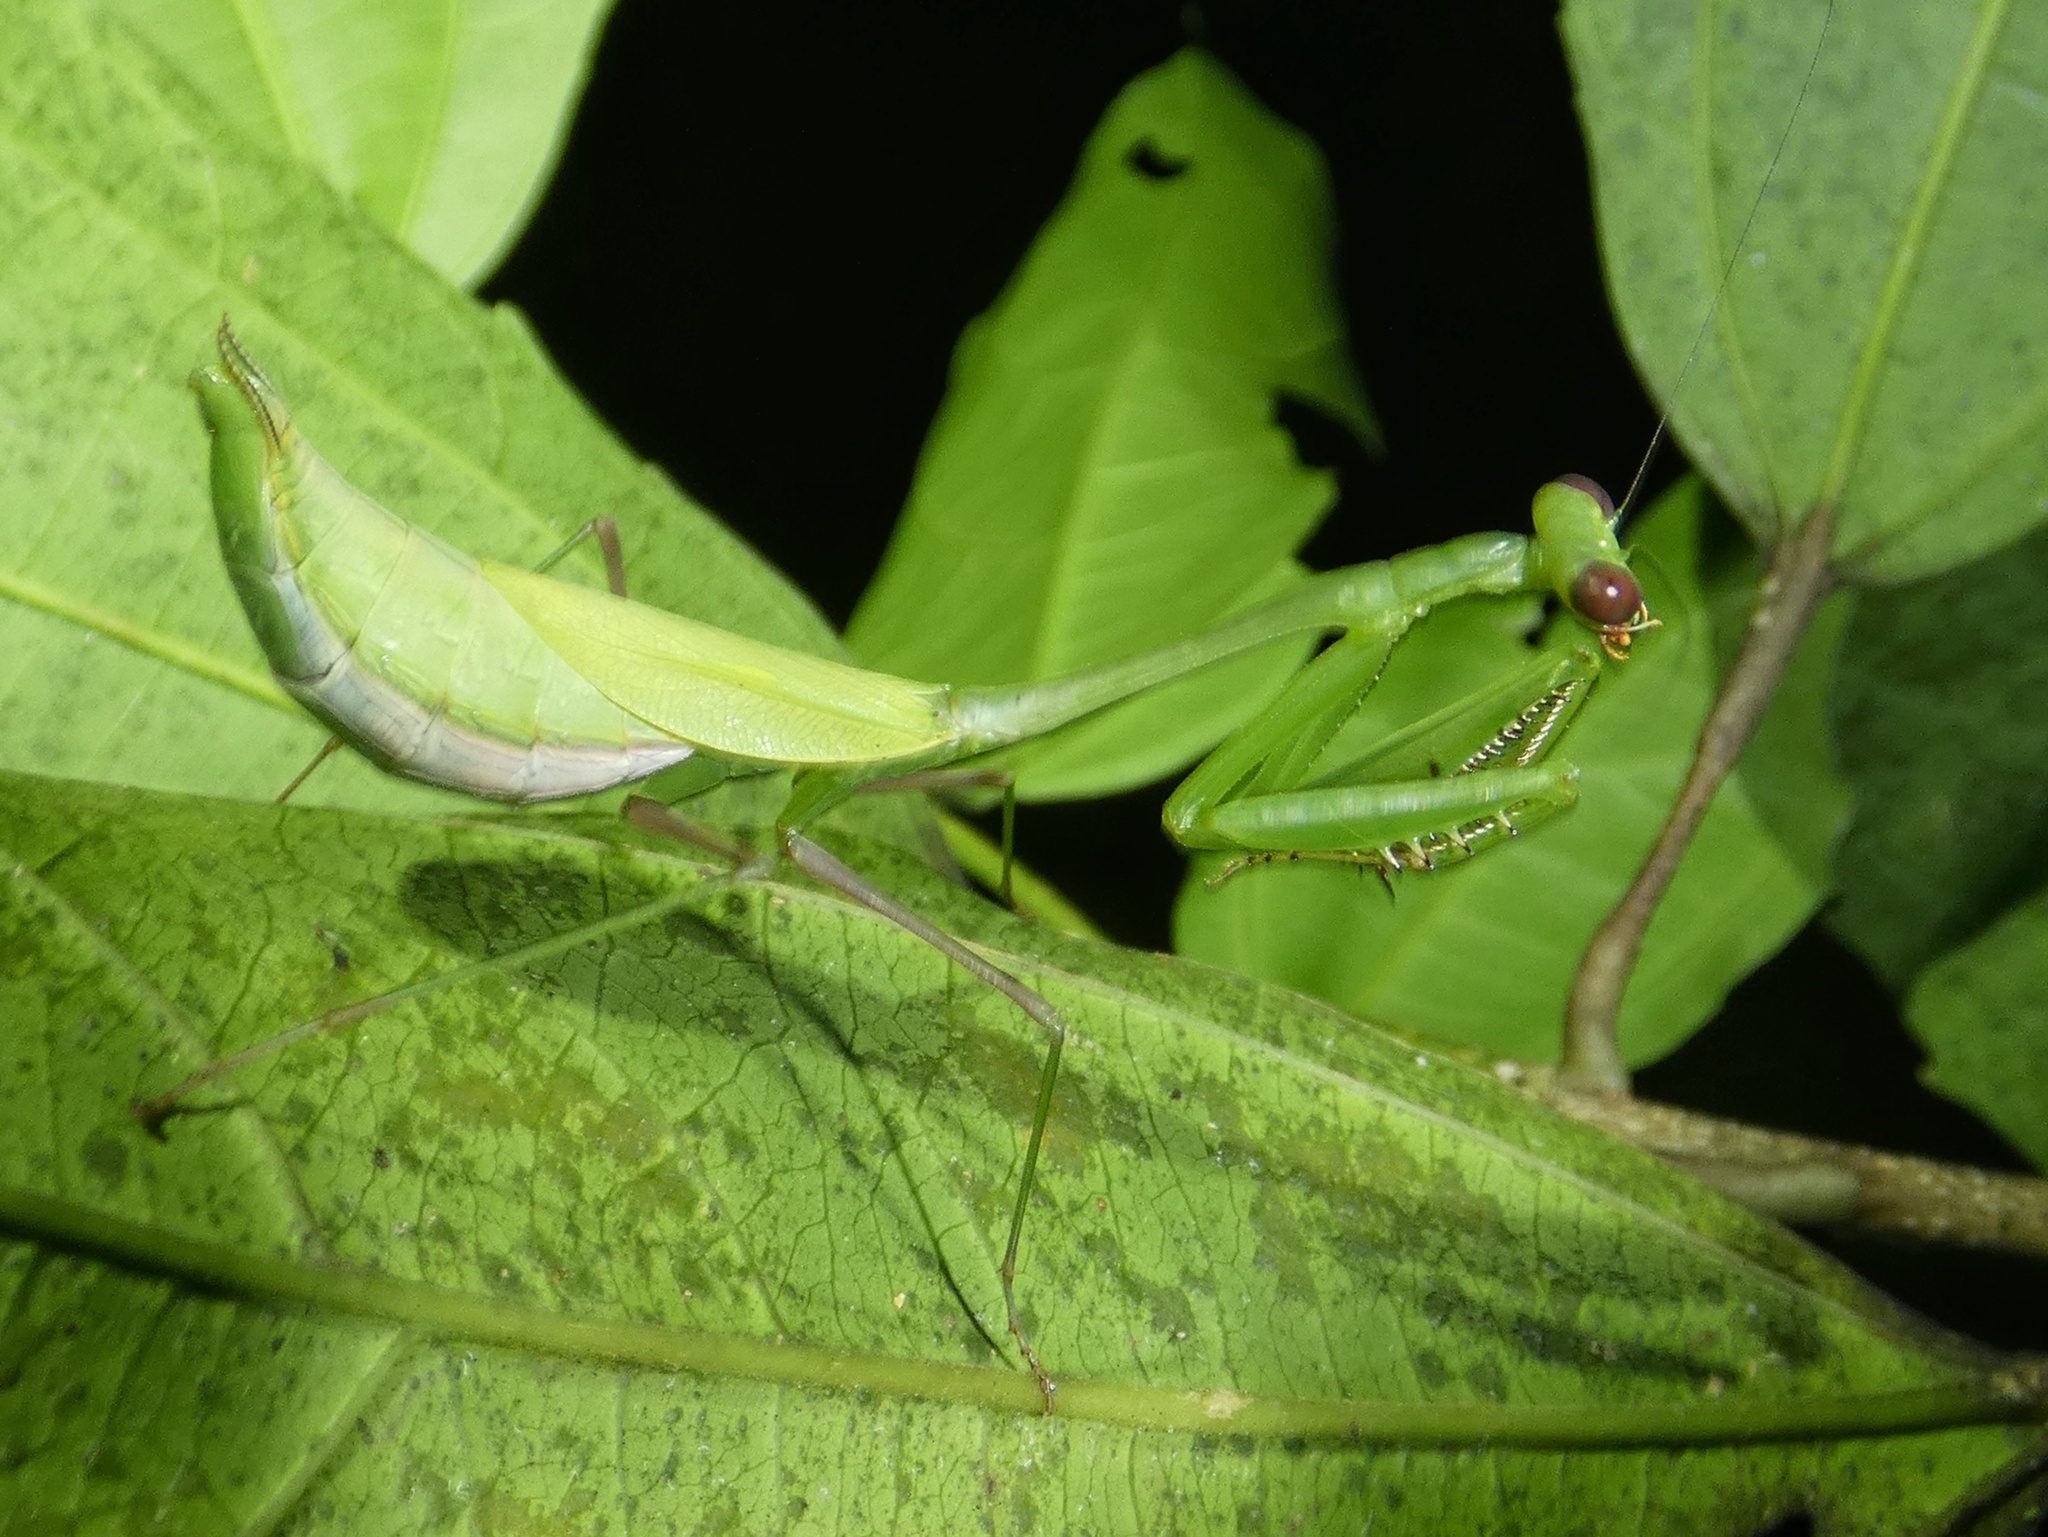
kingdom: Animalia
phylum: Arthropoda
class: Insecta
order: Mantodea
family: Mantidae
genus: Chopardiella
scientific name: Chopardiella heterogamia
